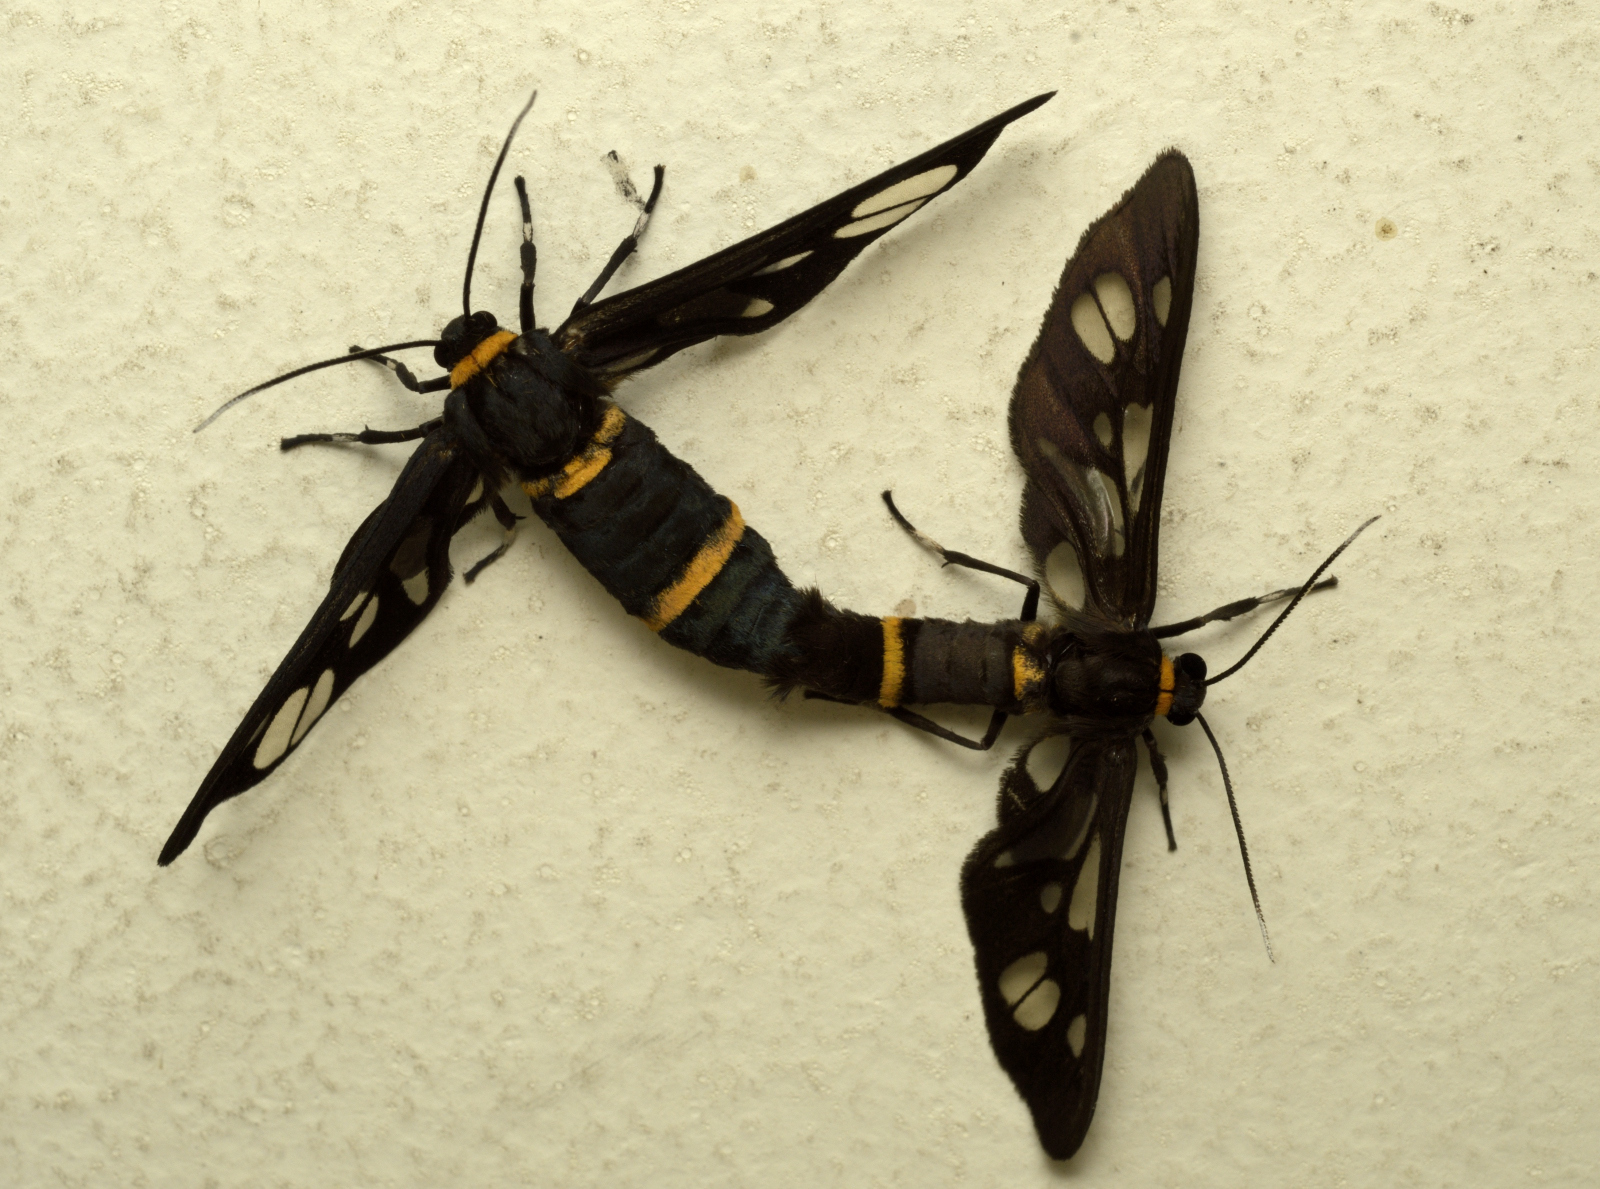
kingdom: Animalia
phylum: Arthropoda
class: Insecta
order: Lepidoptera
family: Erebidae
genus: Syntomoides
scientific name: Syntomoides imaon
